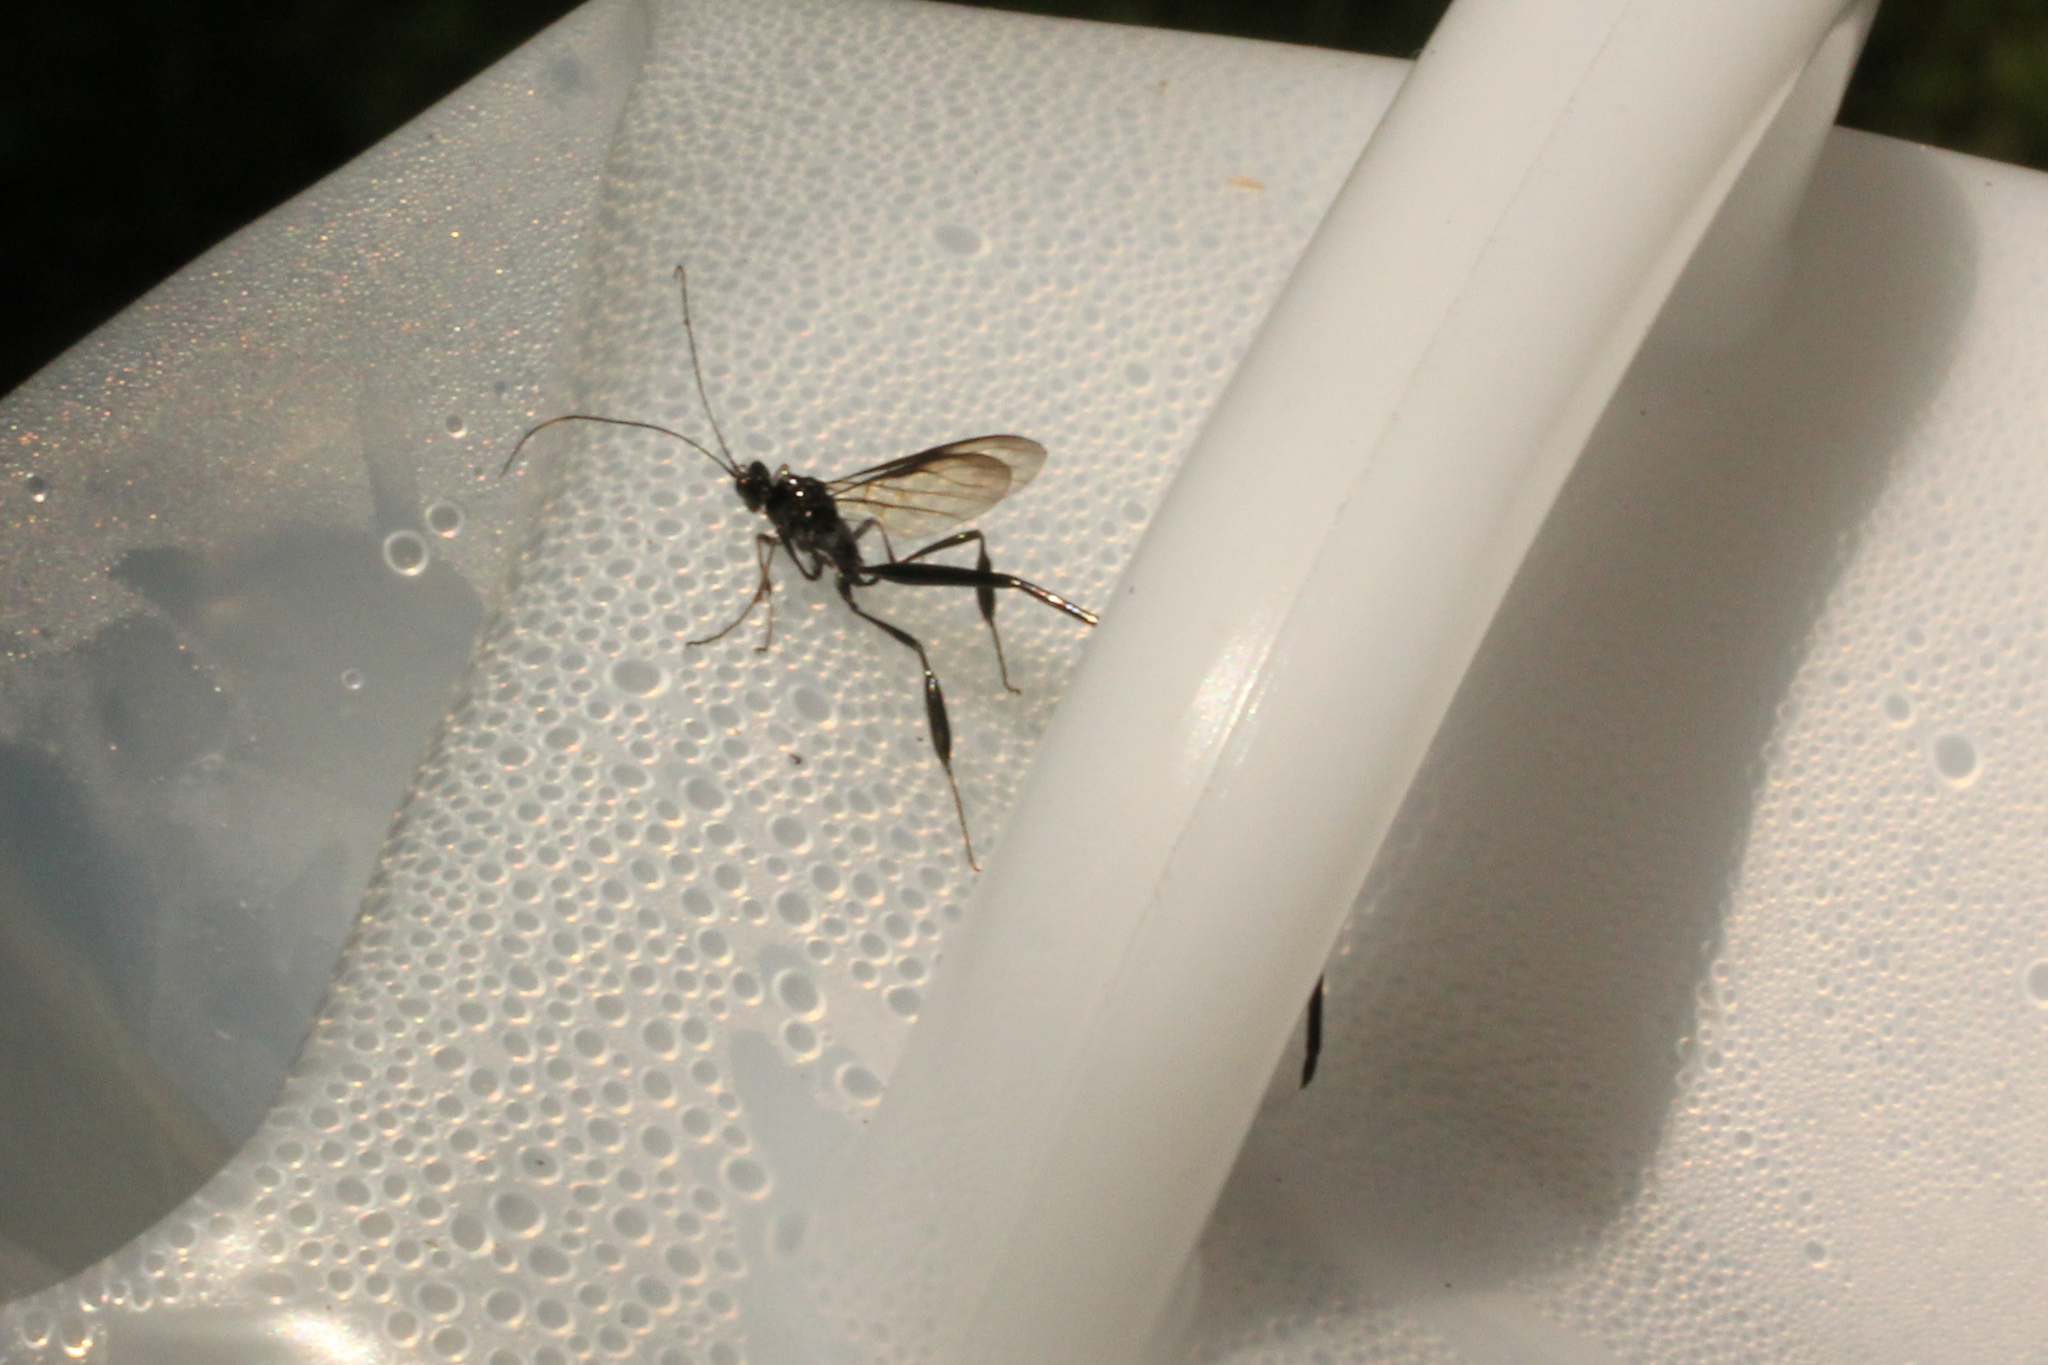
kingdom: Animalia
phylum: Arthropoda
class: Insecta
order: Hymenoptera
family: Pelecinidae
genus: Pelecinus
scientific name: Pelecinus polyturator
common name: American pelecinid wasp
